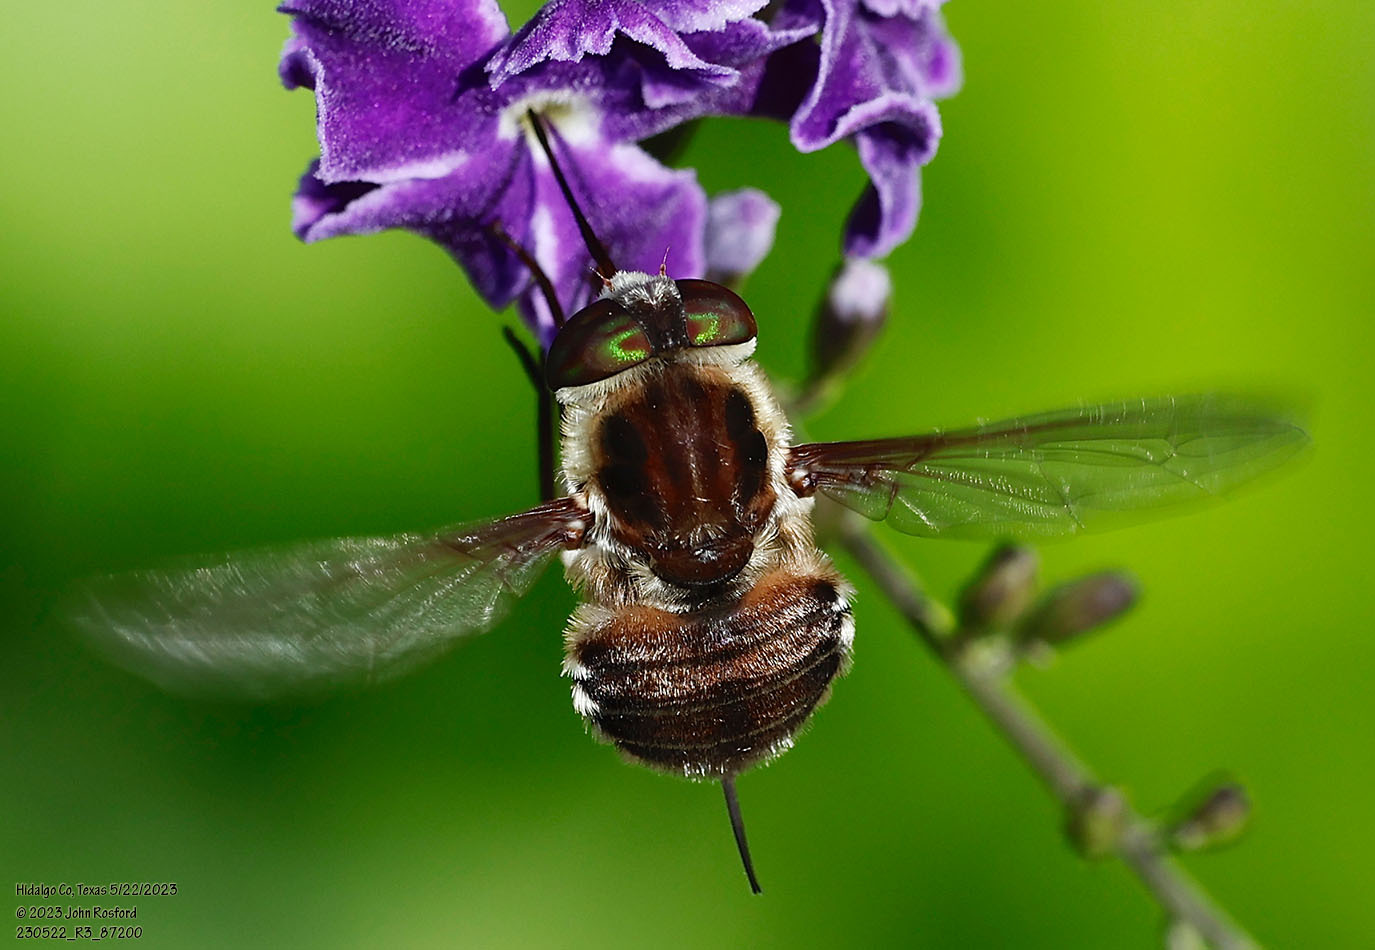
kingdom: Animalia
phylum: Arthropoda
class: Insecta
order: Diptera
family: Nemestrinidae
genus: Neorhynchocephalus
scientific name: Neorhynchocephalus volaticus
